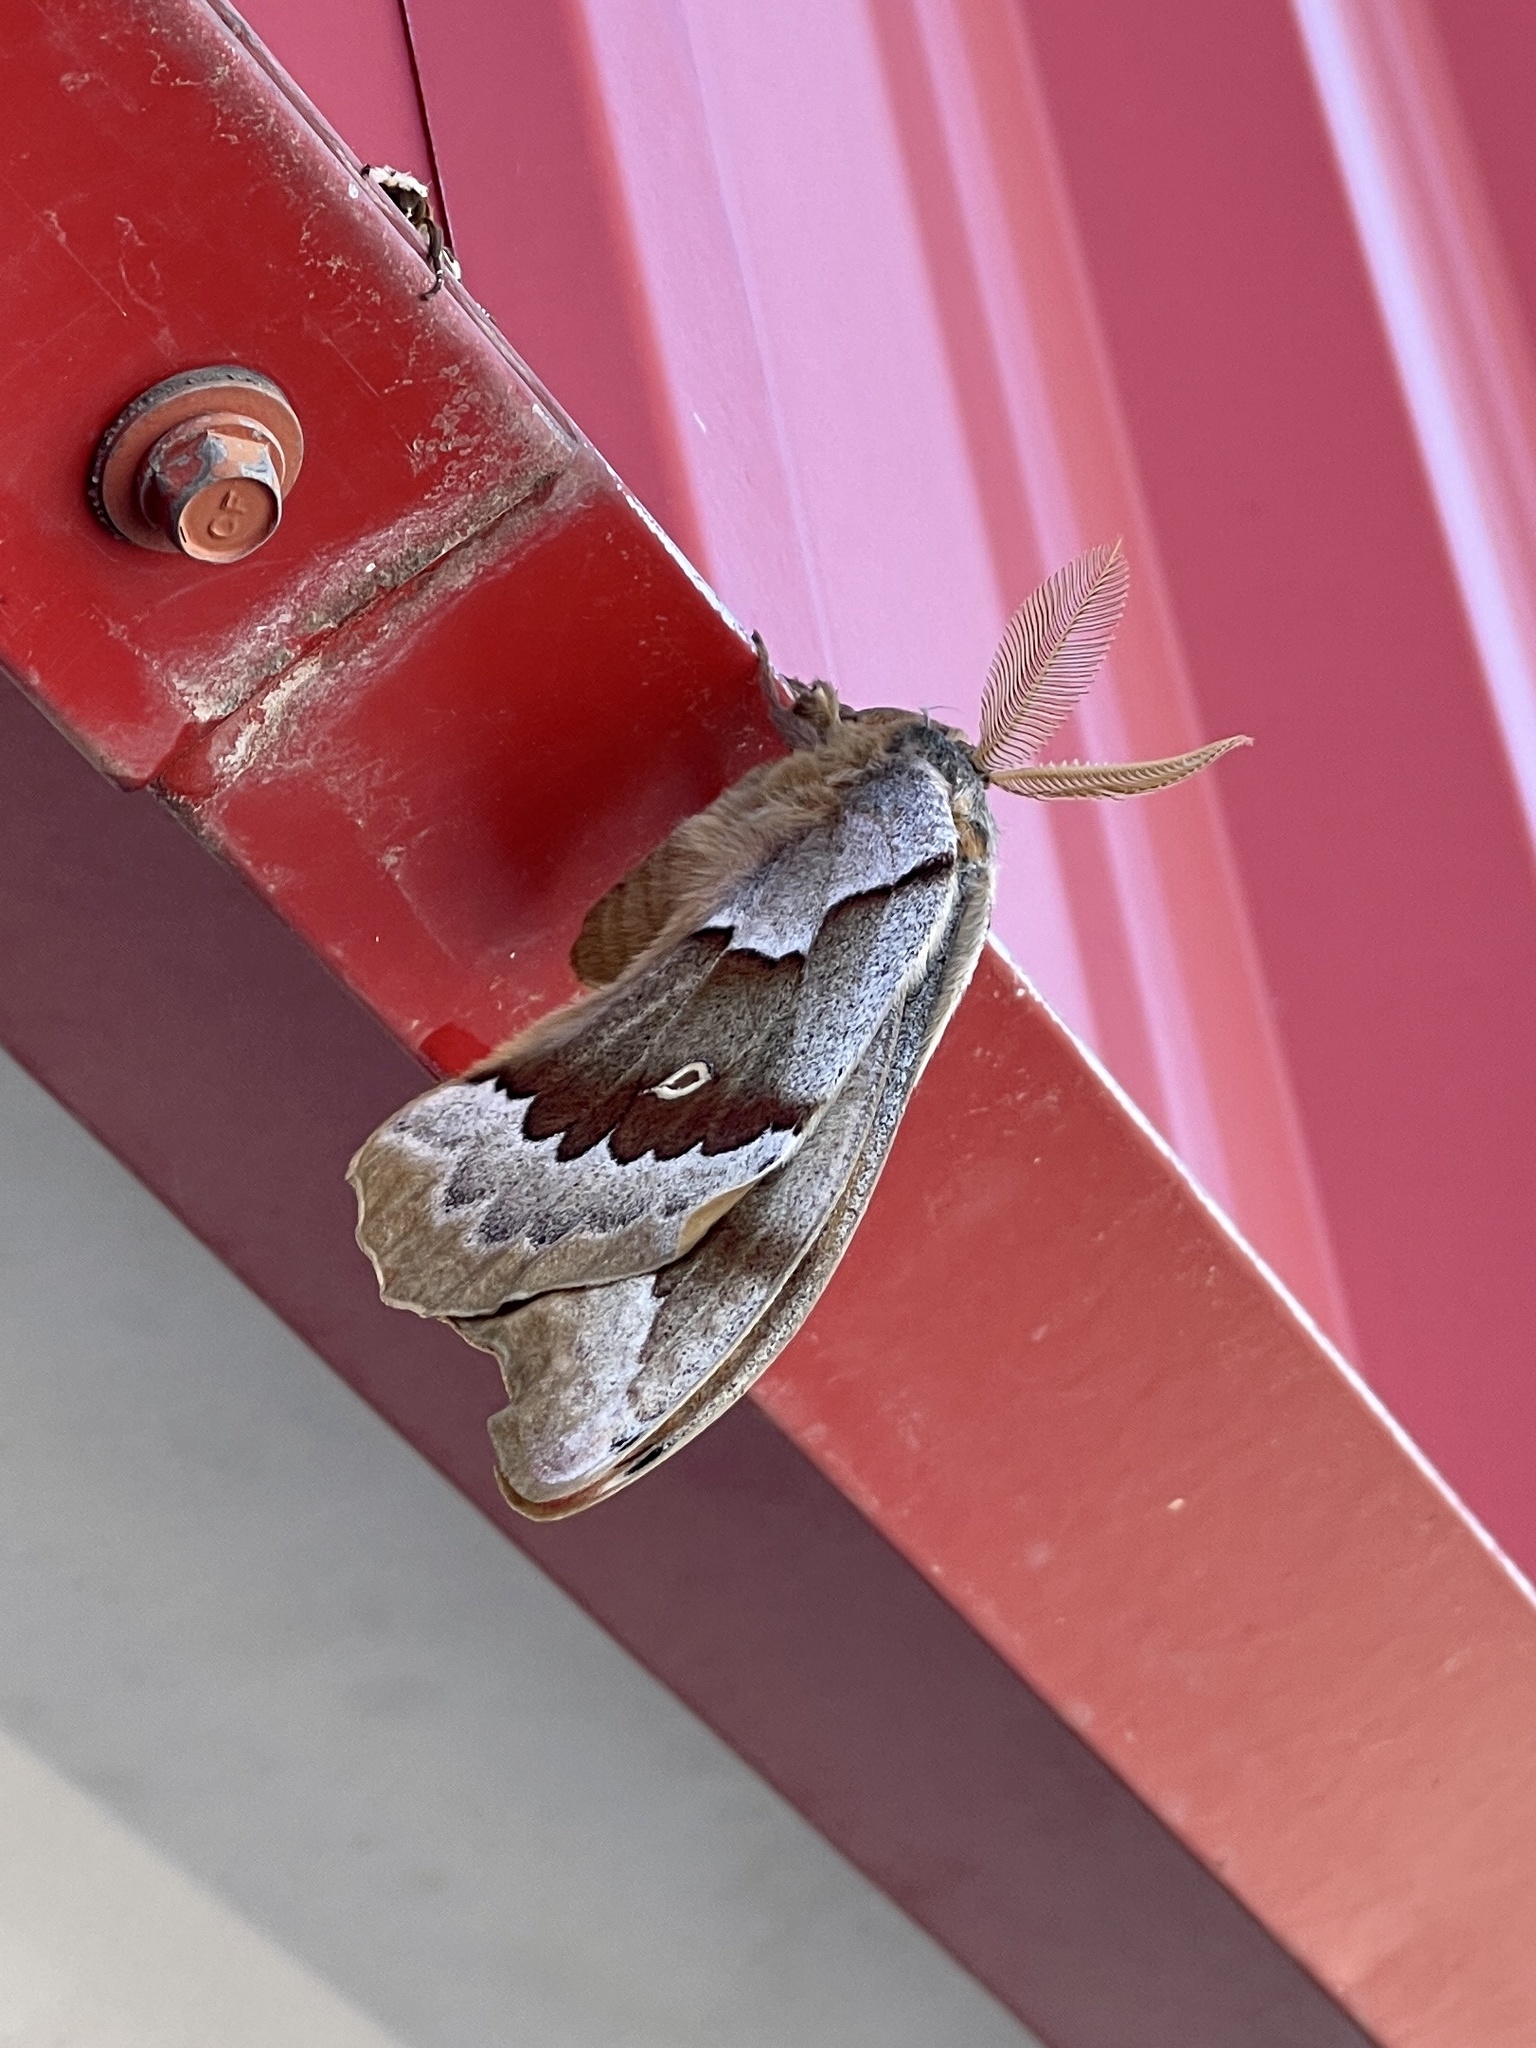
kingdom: Animalia
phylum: Arthropoda
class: Insecta
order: Lepidoptera
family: Saturniidae
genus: Antheraea
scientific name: Antheraea oculea
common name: Arizona polyphemus moth
